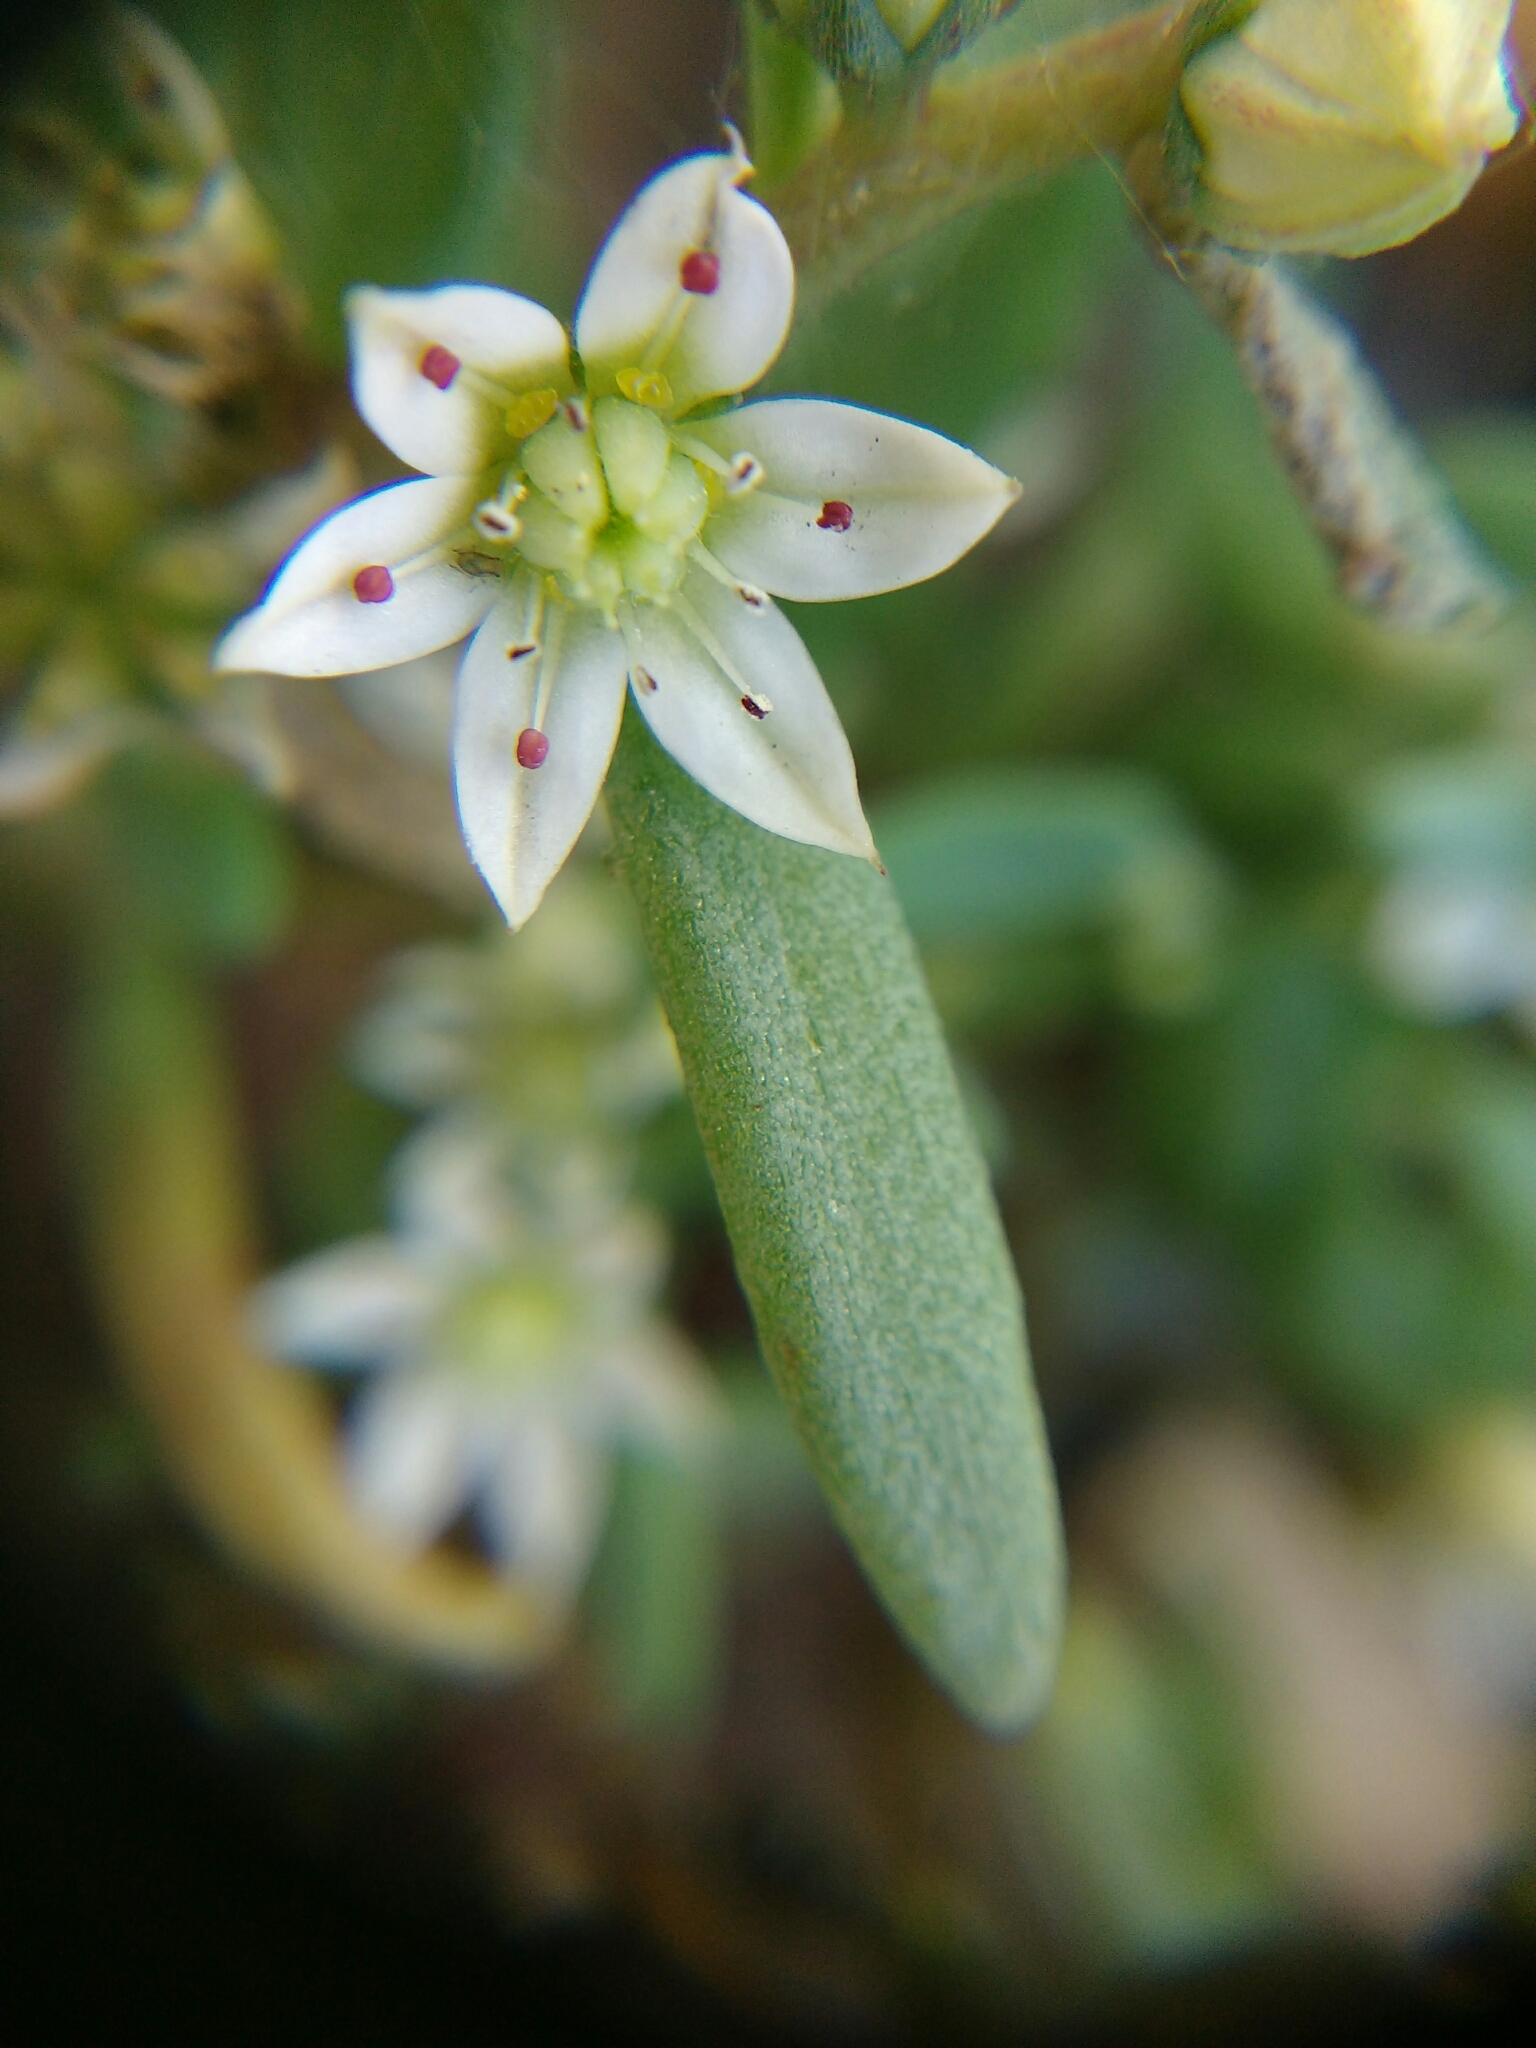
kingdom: Plantae
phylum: Tracheophyta
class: Magnoliopsida
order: Saxifragales
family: Crassulaceae
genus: Sedum
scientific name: Sedum hispanicum
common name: Spanish stonecrop
